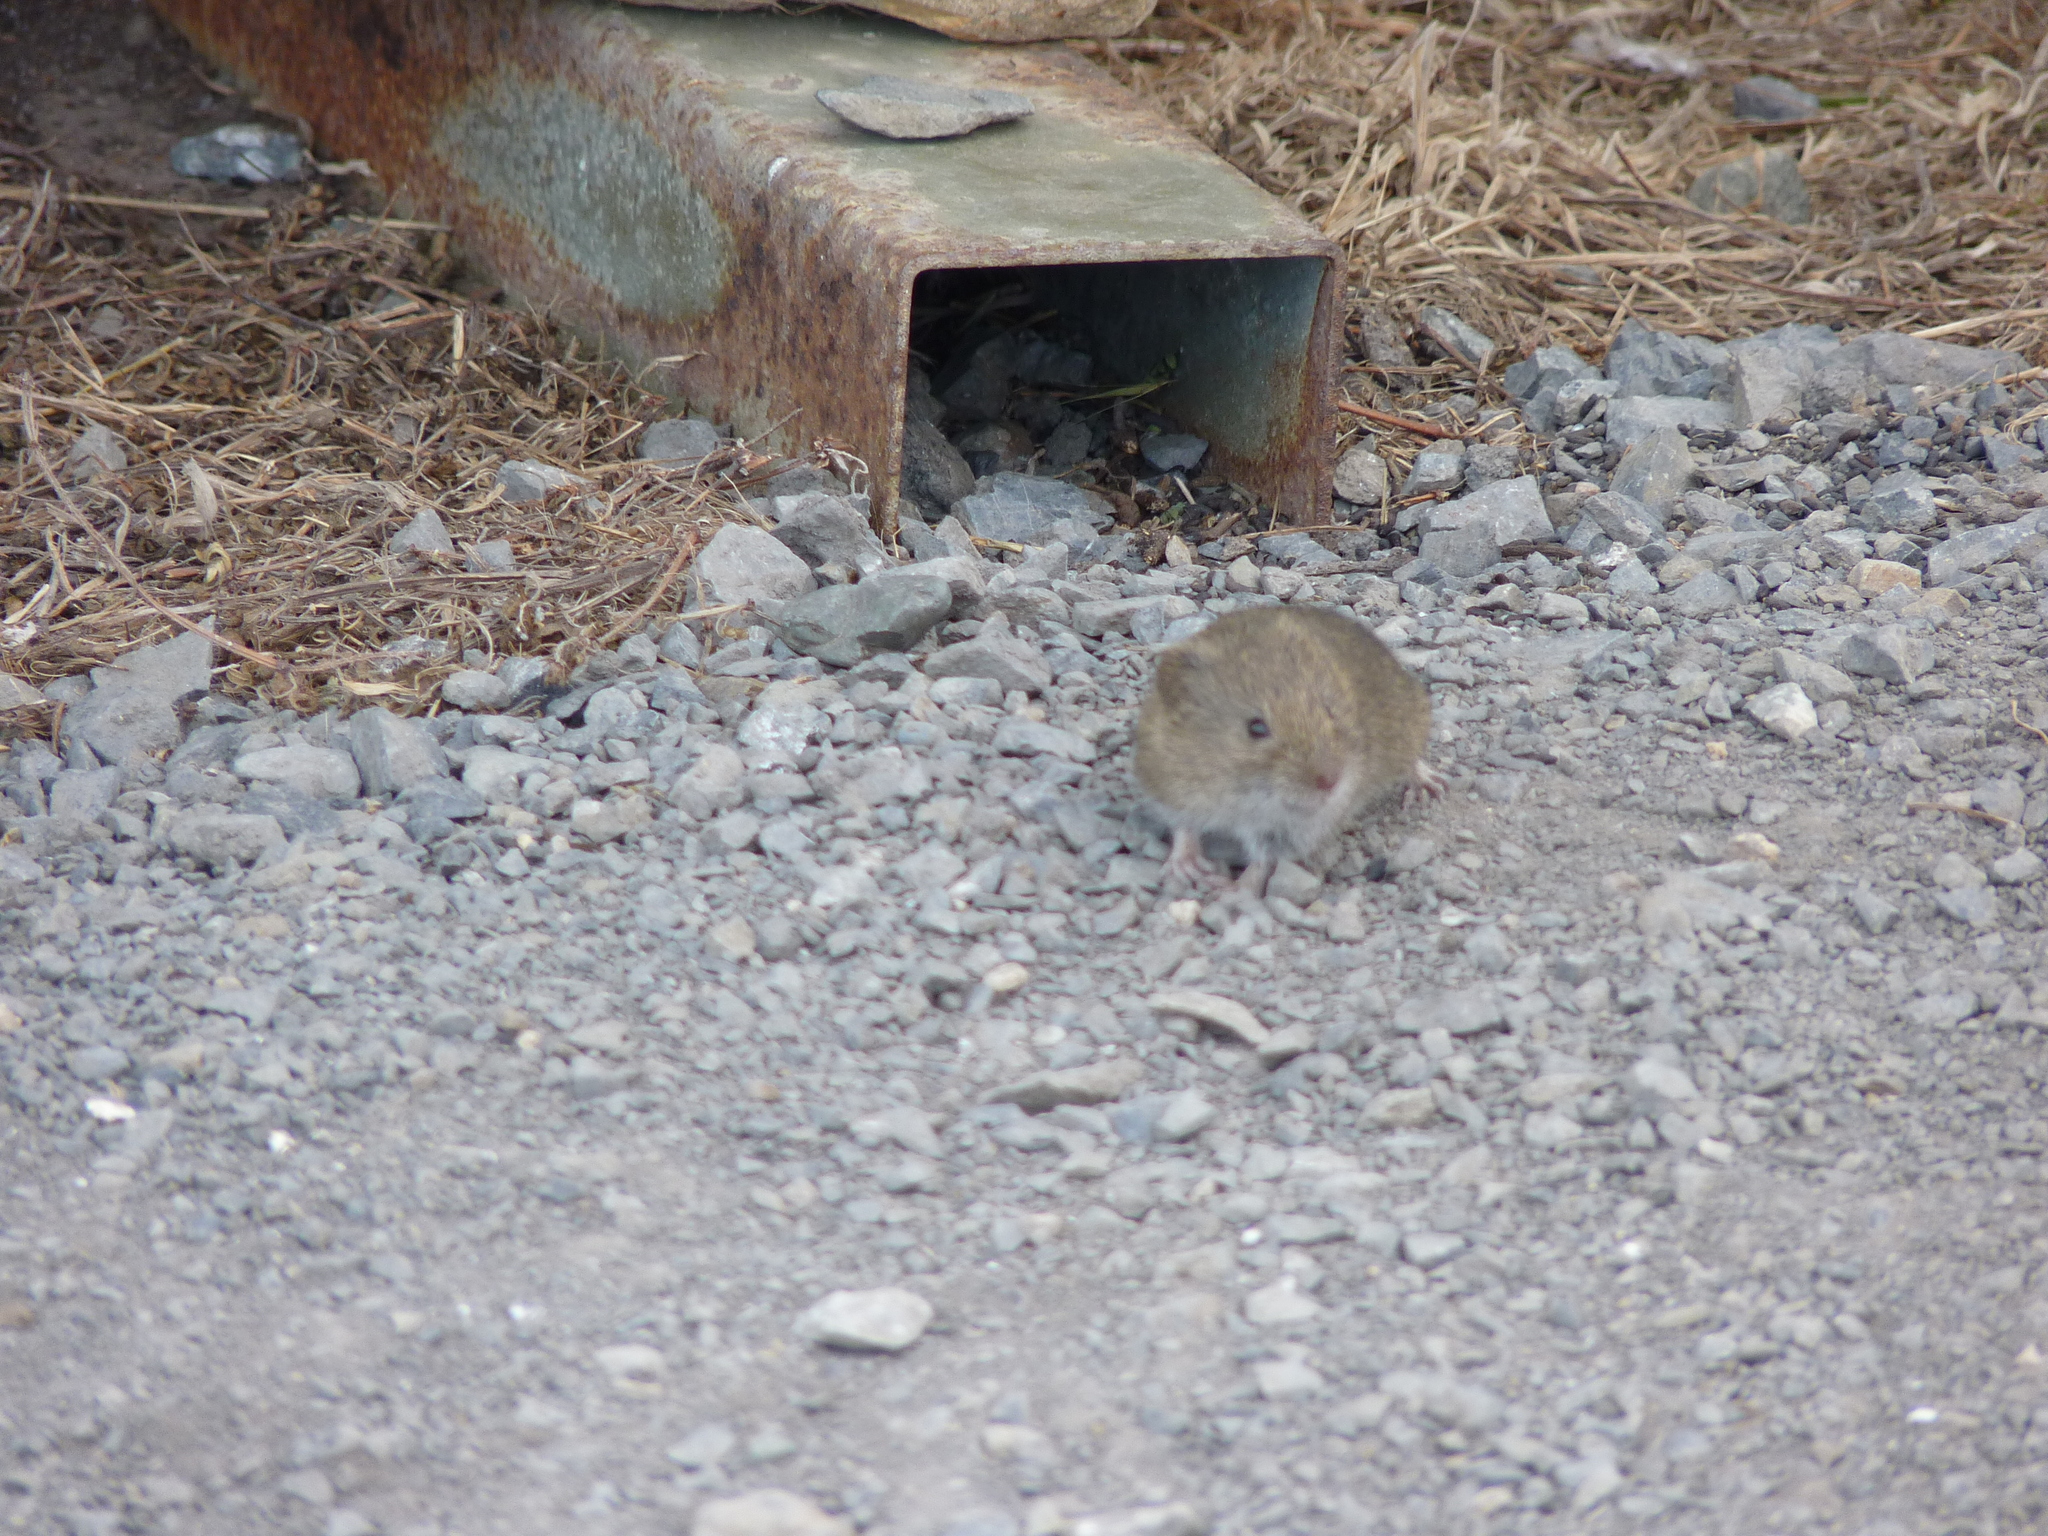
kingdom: Animalia
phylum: Chordata
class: Mammalia
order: Rodentia
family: Cricetidae
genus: Microtus
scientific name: Microtus californicus
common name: California vole
